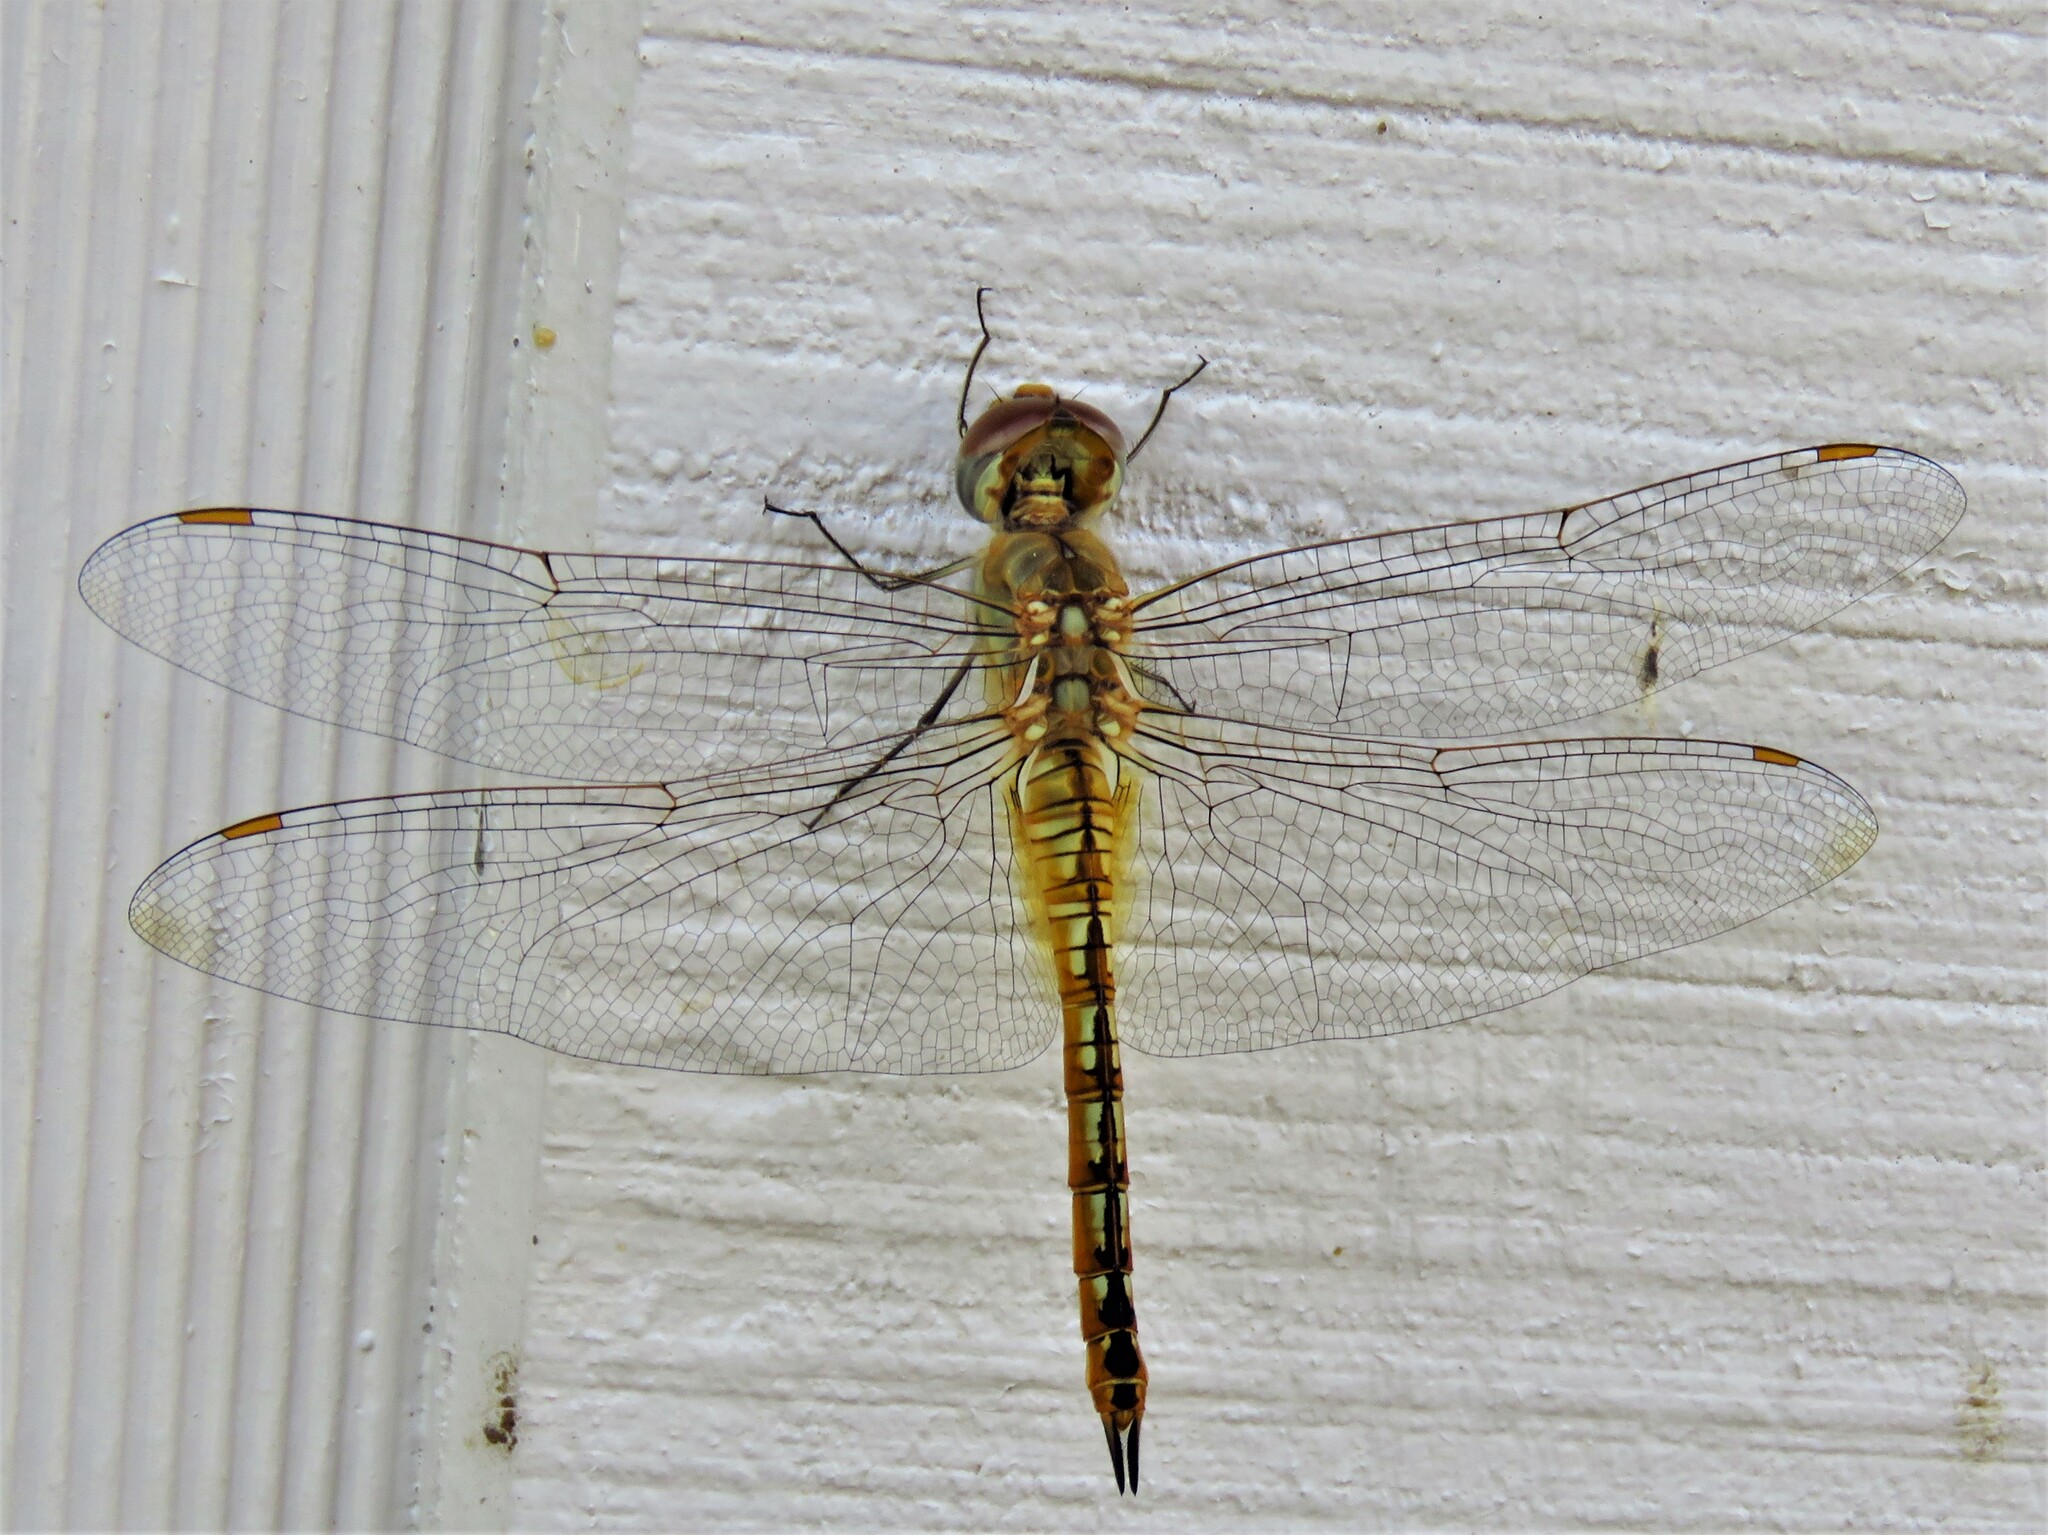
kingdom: Animalia
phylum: Arthropoda
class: Insecta
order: Odonata
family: Libellulidae
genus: Pantala
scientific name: Pantala flavescens
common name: Wandering glider
